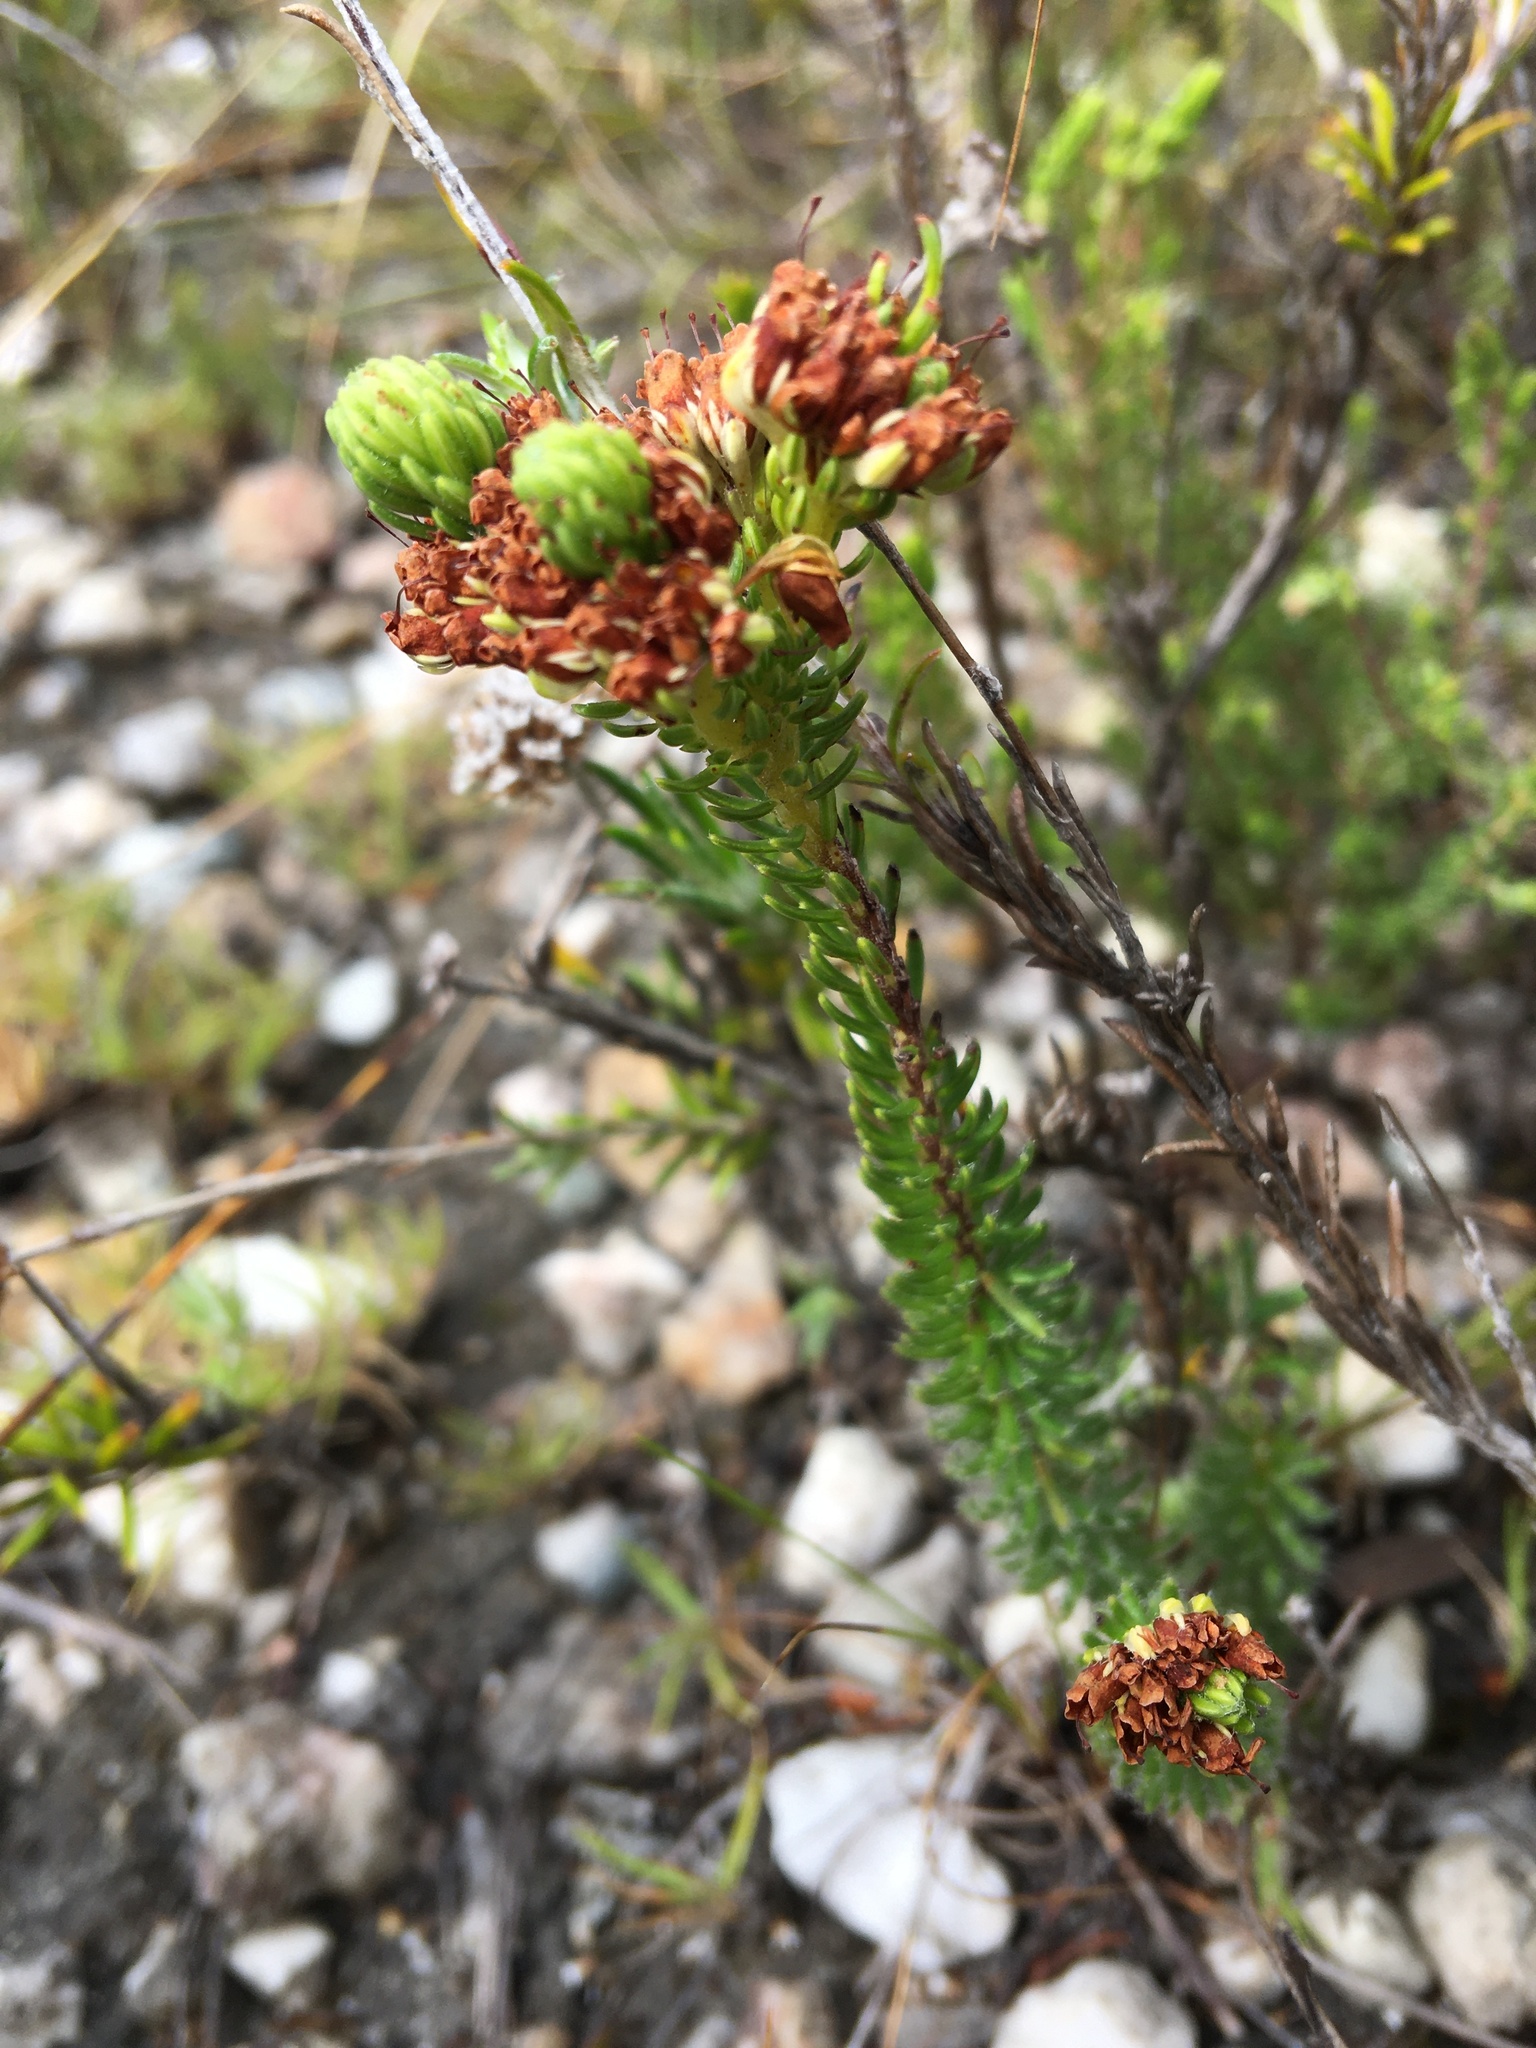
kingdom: Plantae
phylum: Tracheophyta
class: Magnoliopsida
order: Ericales
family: Ericaceae
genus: Erica
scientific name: Erica bruniifolia
